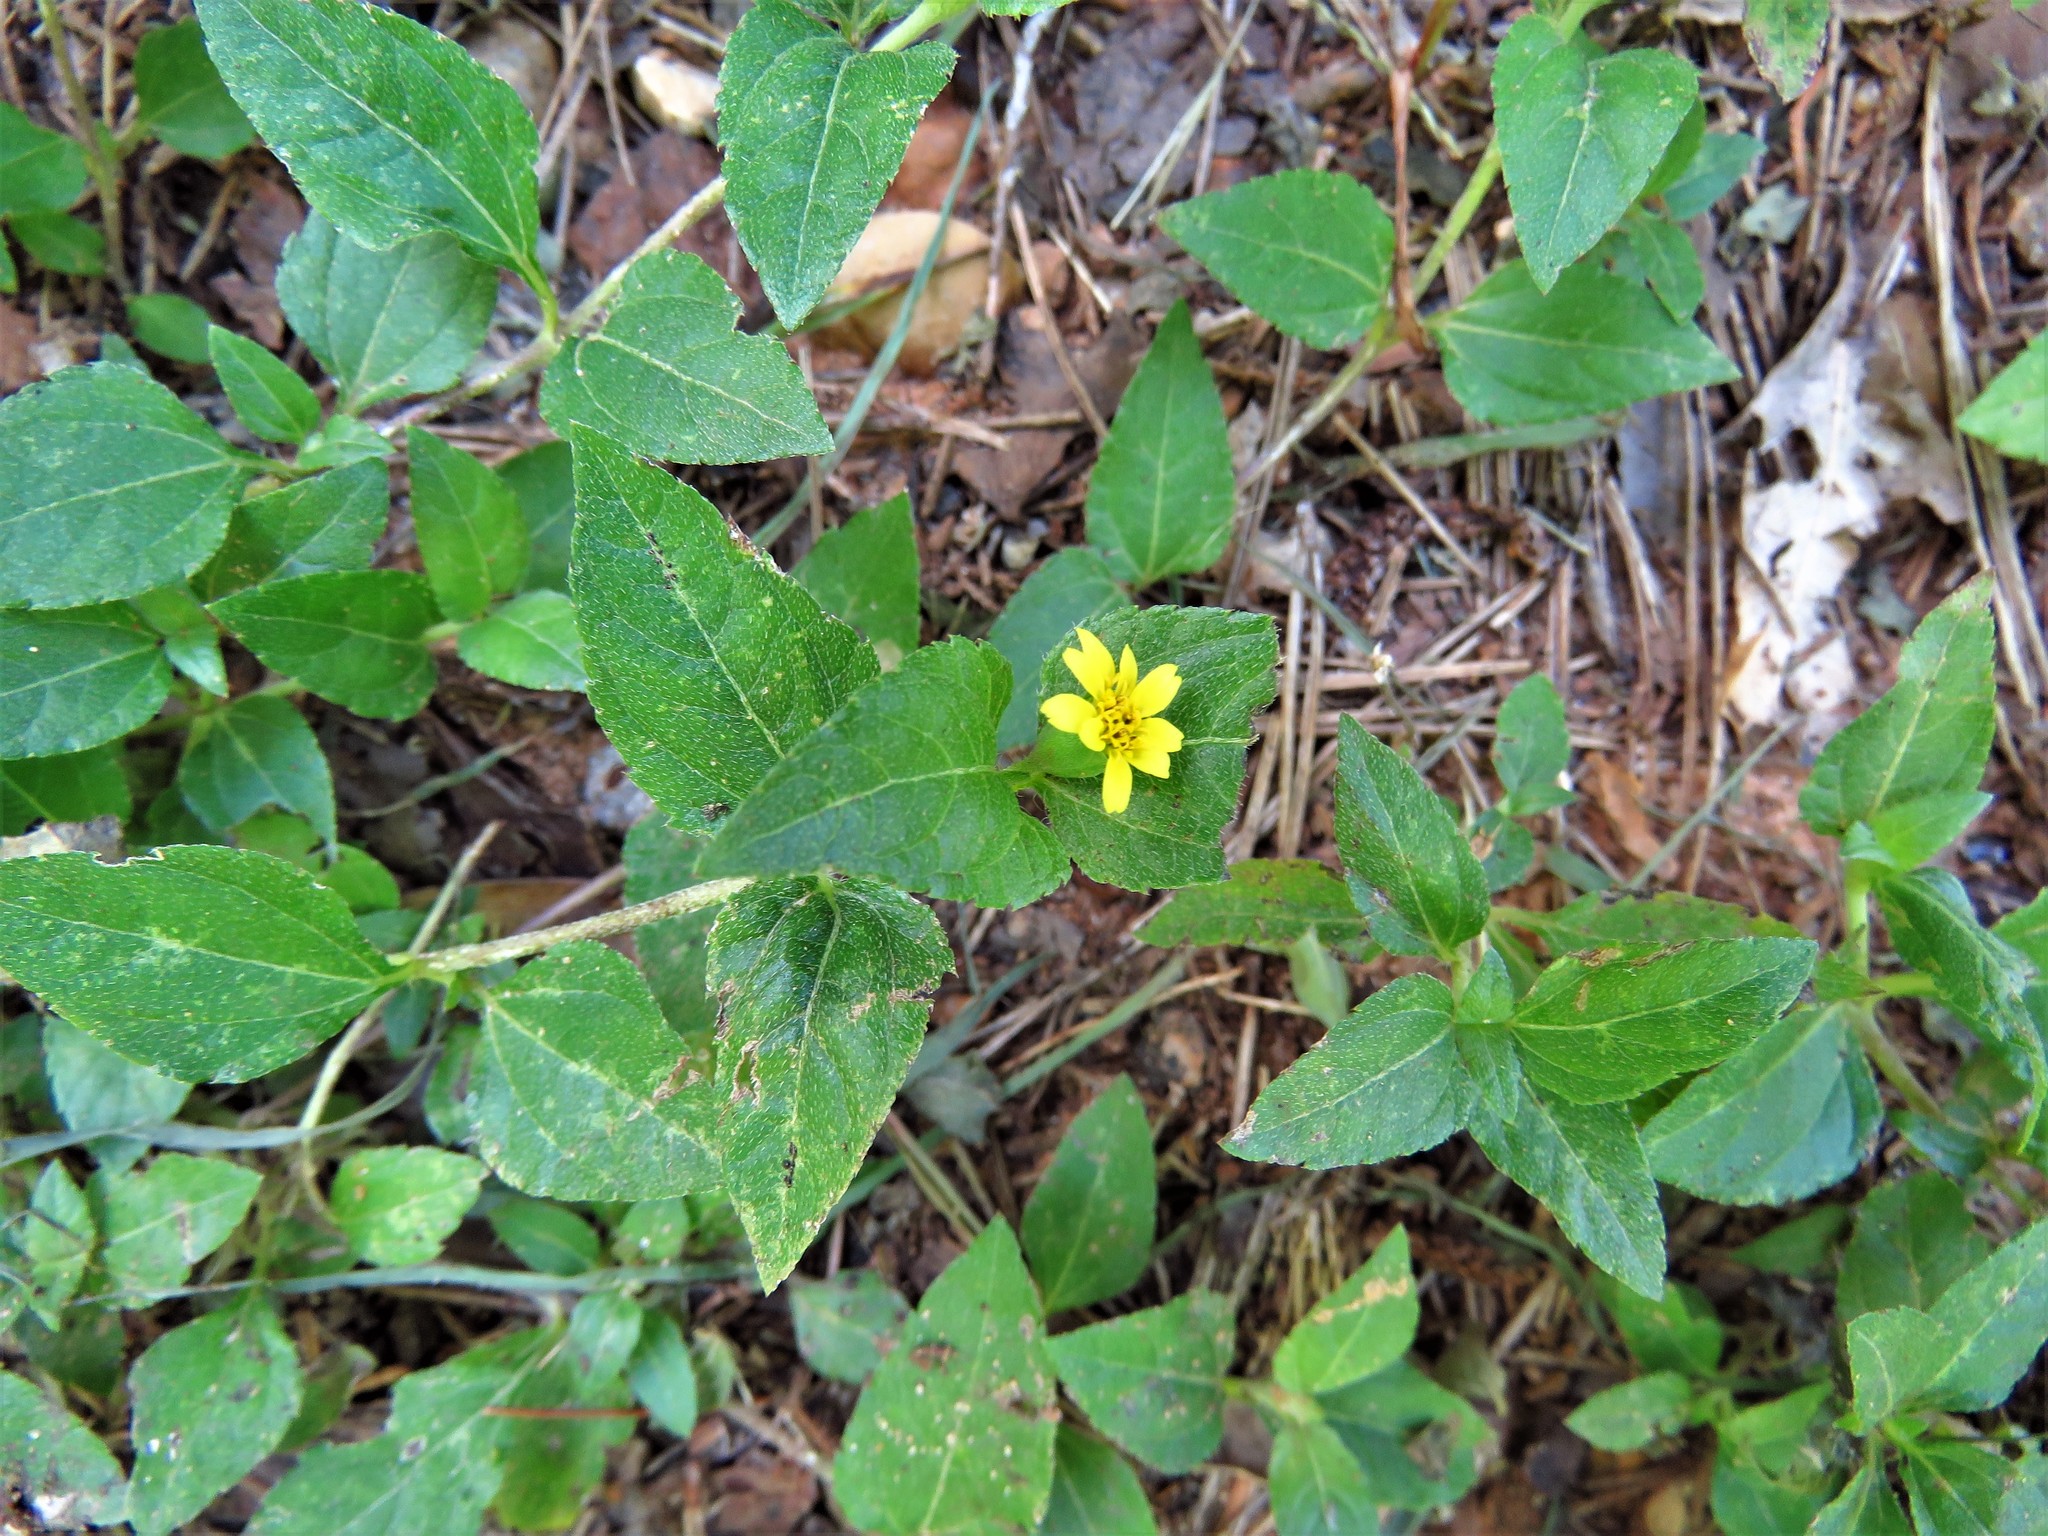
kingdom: Plantae
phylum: Tracheophyta
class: Magnoliopsida
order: Asterales
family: Asteraceae
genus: Calyptocarpus
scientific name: Calyptocarpus vialis
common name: Straggler daisy
